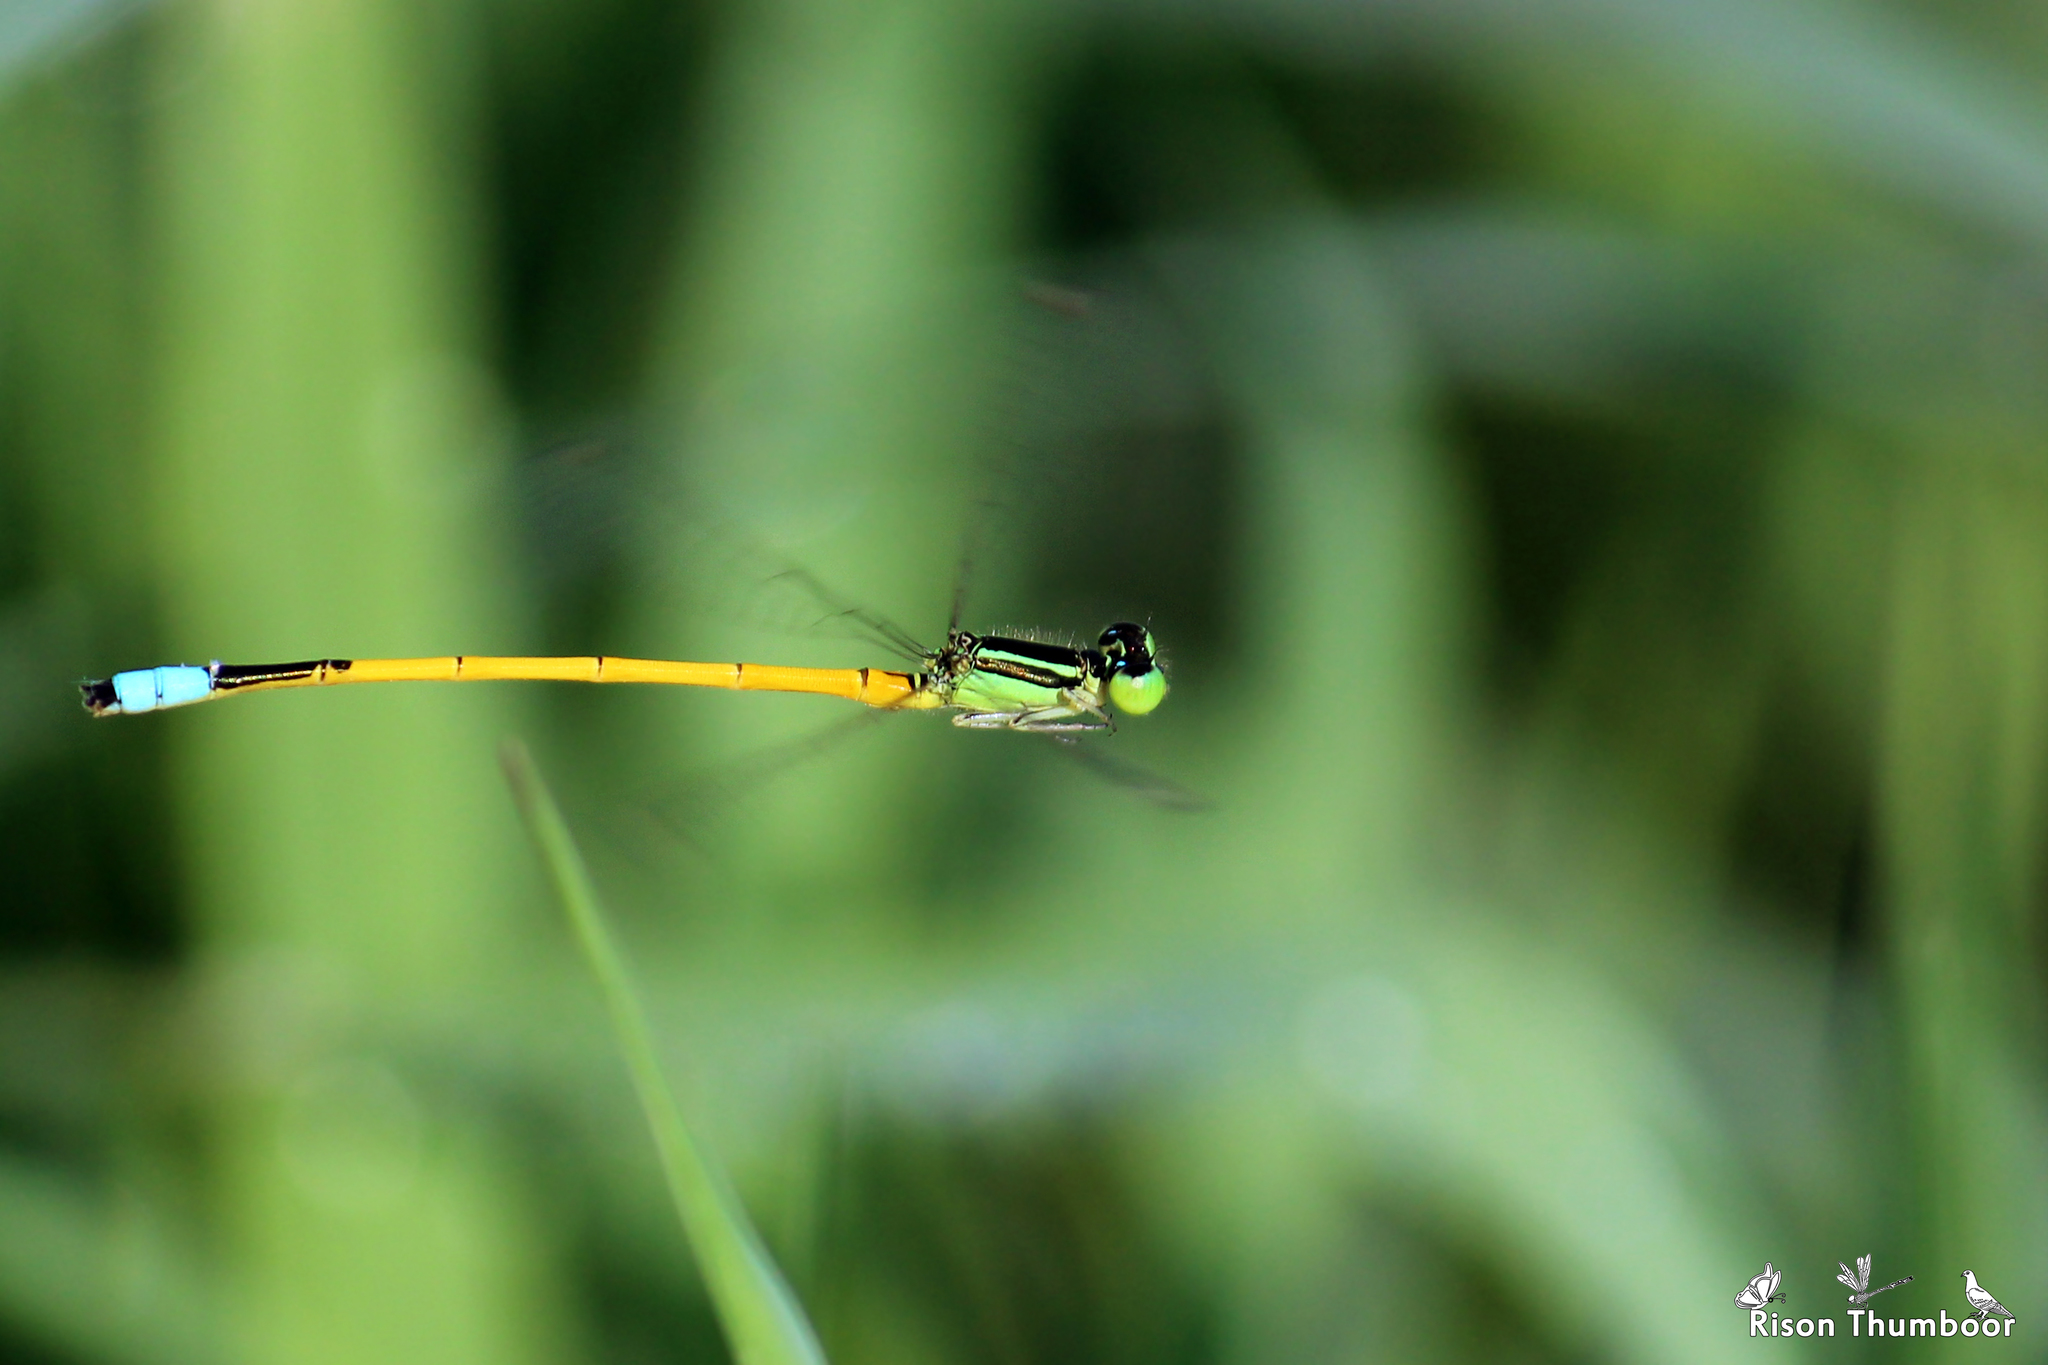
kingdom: Animalia
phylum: Arthropoda
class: Insecta
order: Odonata
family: Coenagrionidae
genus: Ischnura
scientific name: Ischnura rubilio
